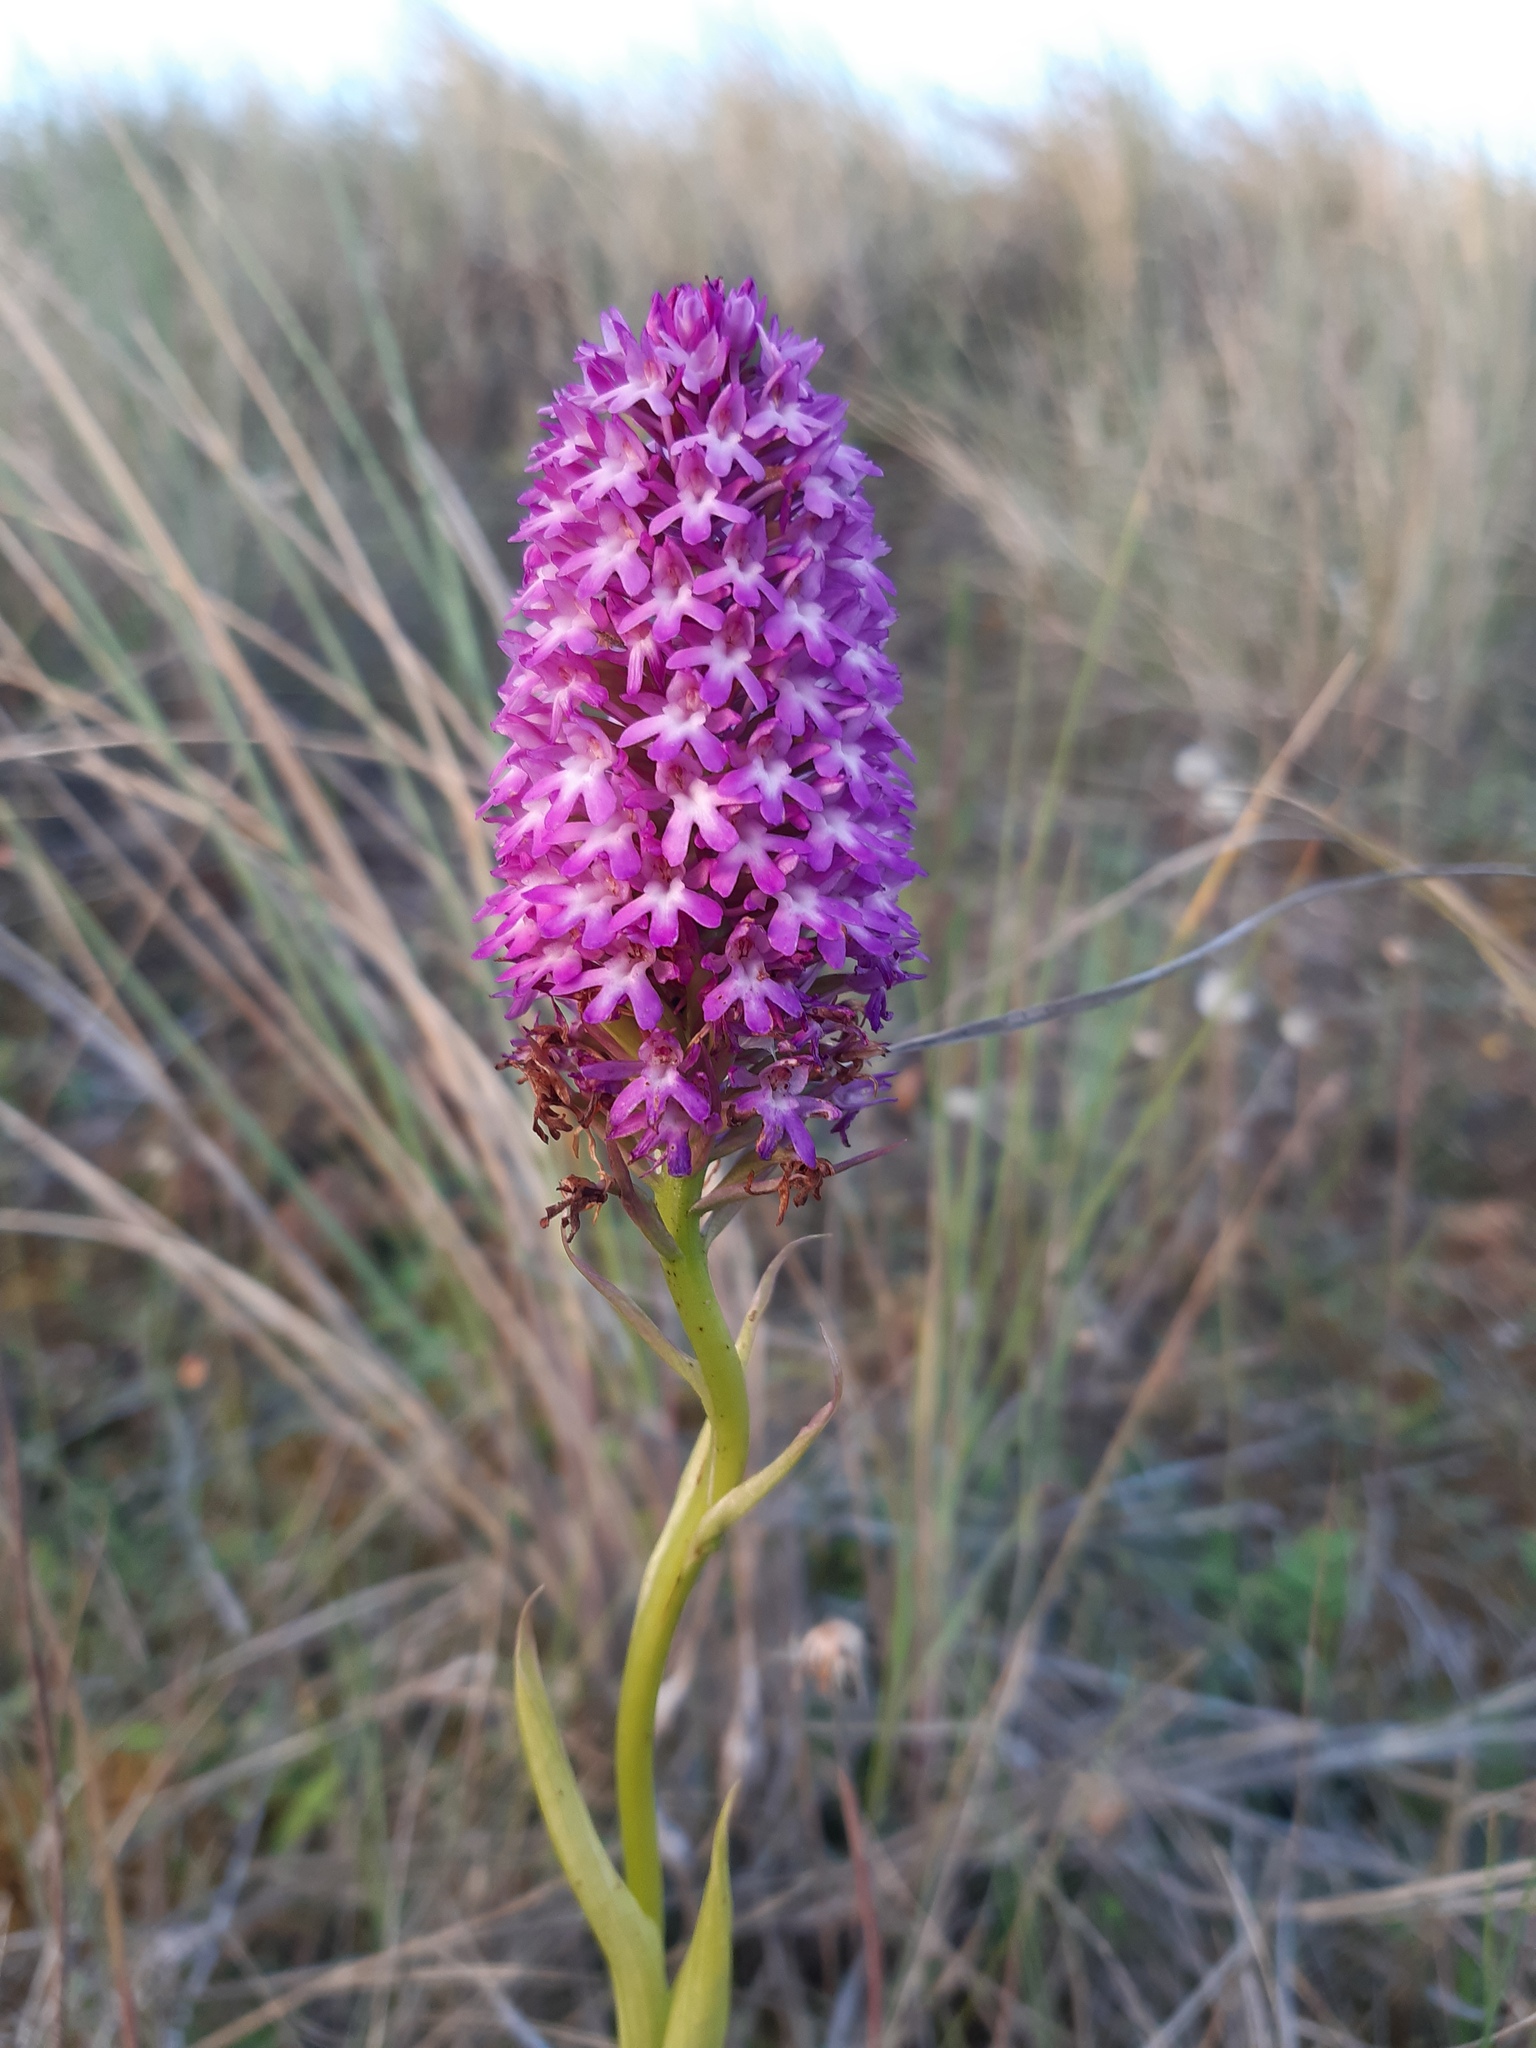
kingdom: Plantae
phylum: Tracheophyta
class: Liliopsida
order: Asparagales
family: Orchidaceae
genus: Anacamptis
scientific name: Anacamptis pyramidalis
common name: Pyramidal orchid
